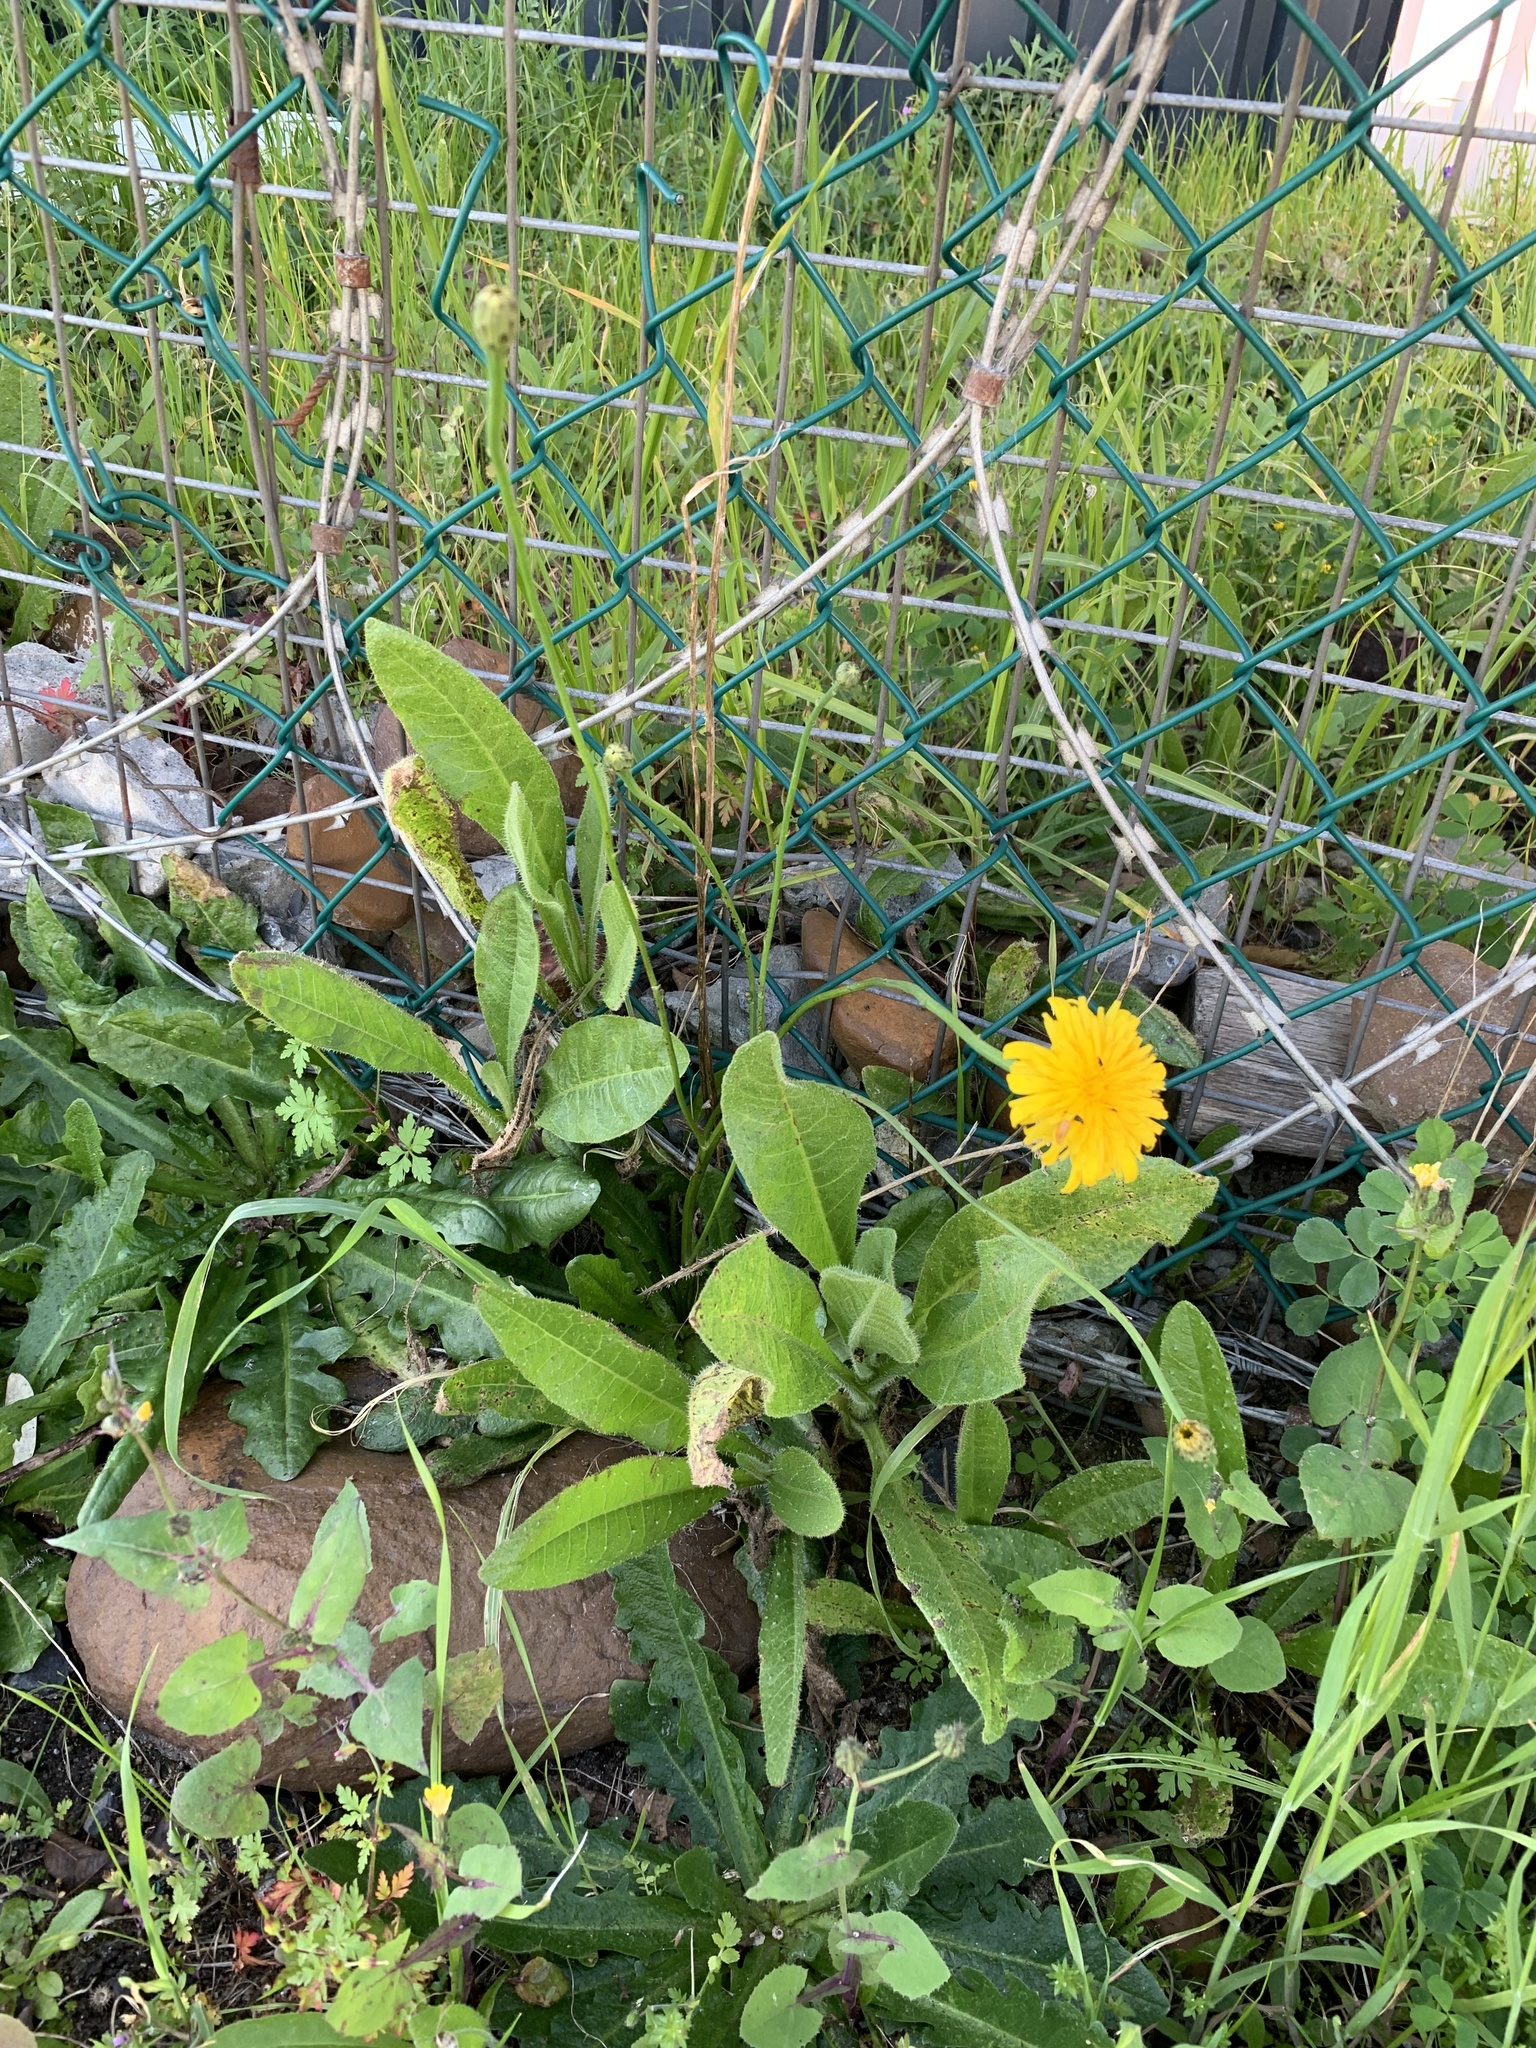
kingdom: Plantae
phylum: Tracheophyta
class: Magnoliopsida
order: Asterales
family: Asteraceae
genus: Hypochaeris
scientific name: Hypochaeris radicata
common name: Flatweed
